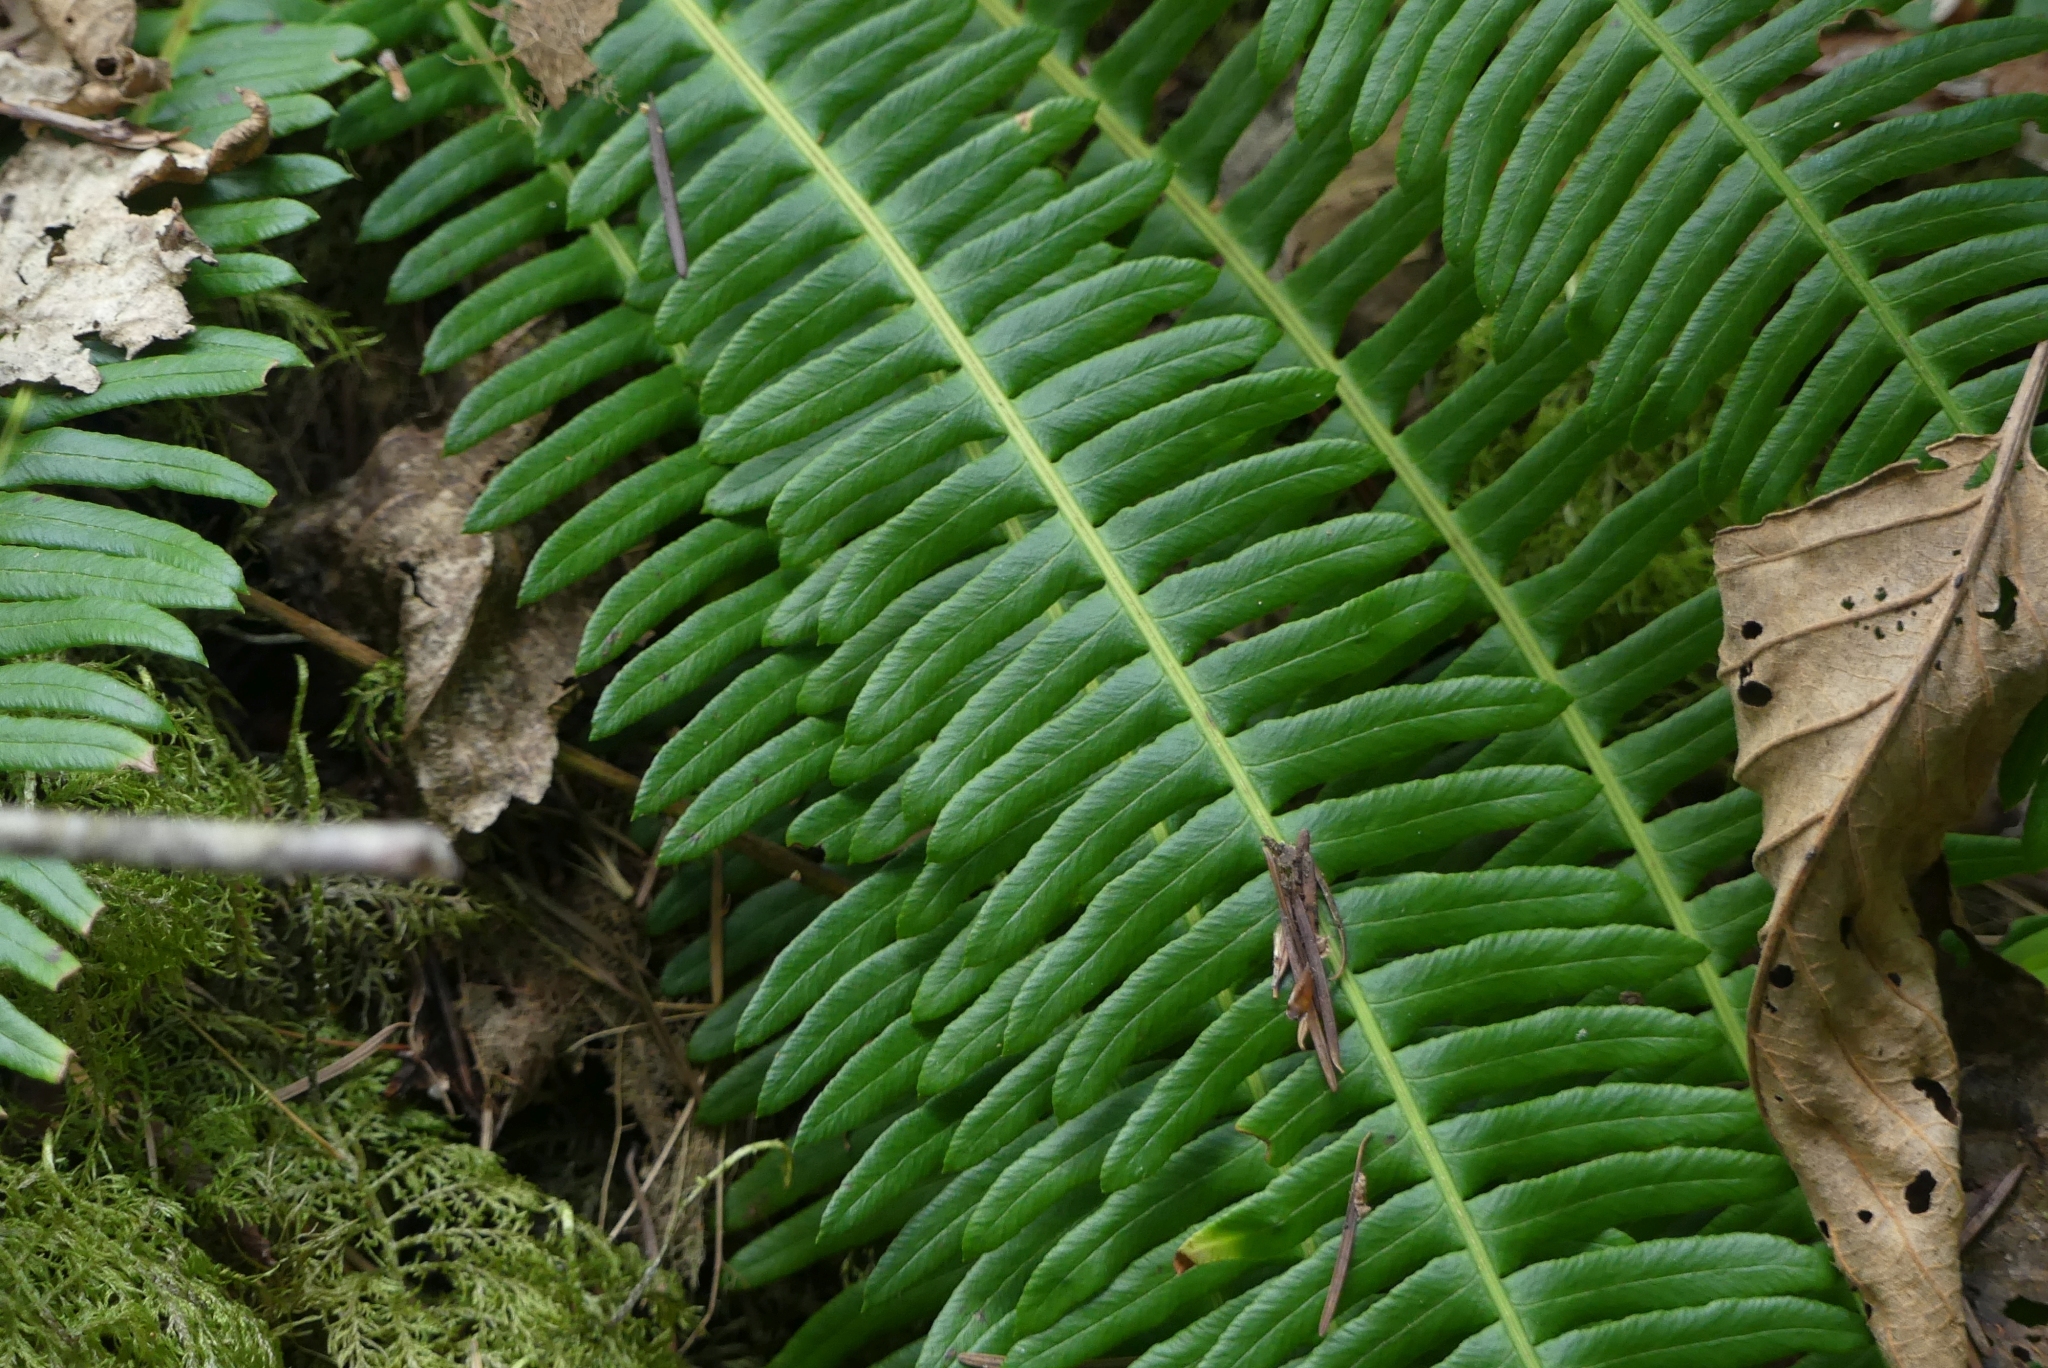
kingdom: Plantae
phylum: Tracheophyta
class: Polypodiopsida
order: Polypodiales
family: Blechnaceae
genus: Struthiopteris
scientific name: Struthiopteris spicant
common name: Deer fern
